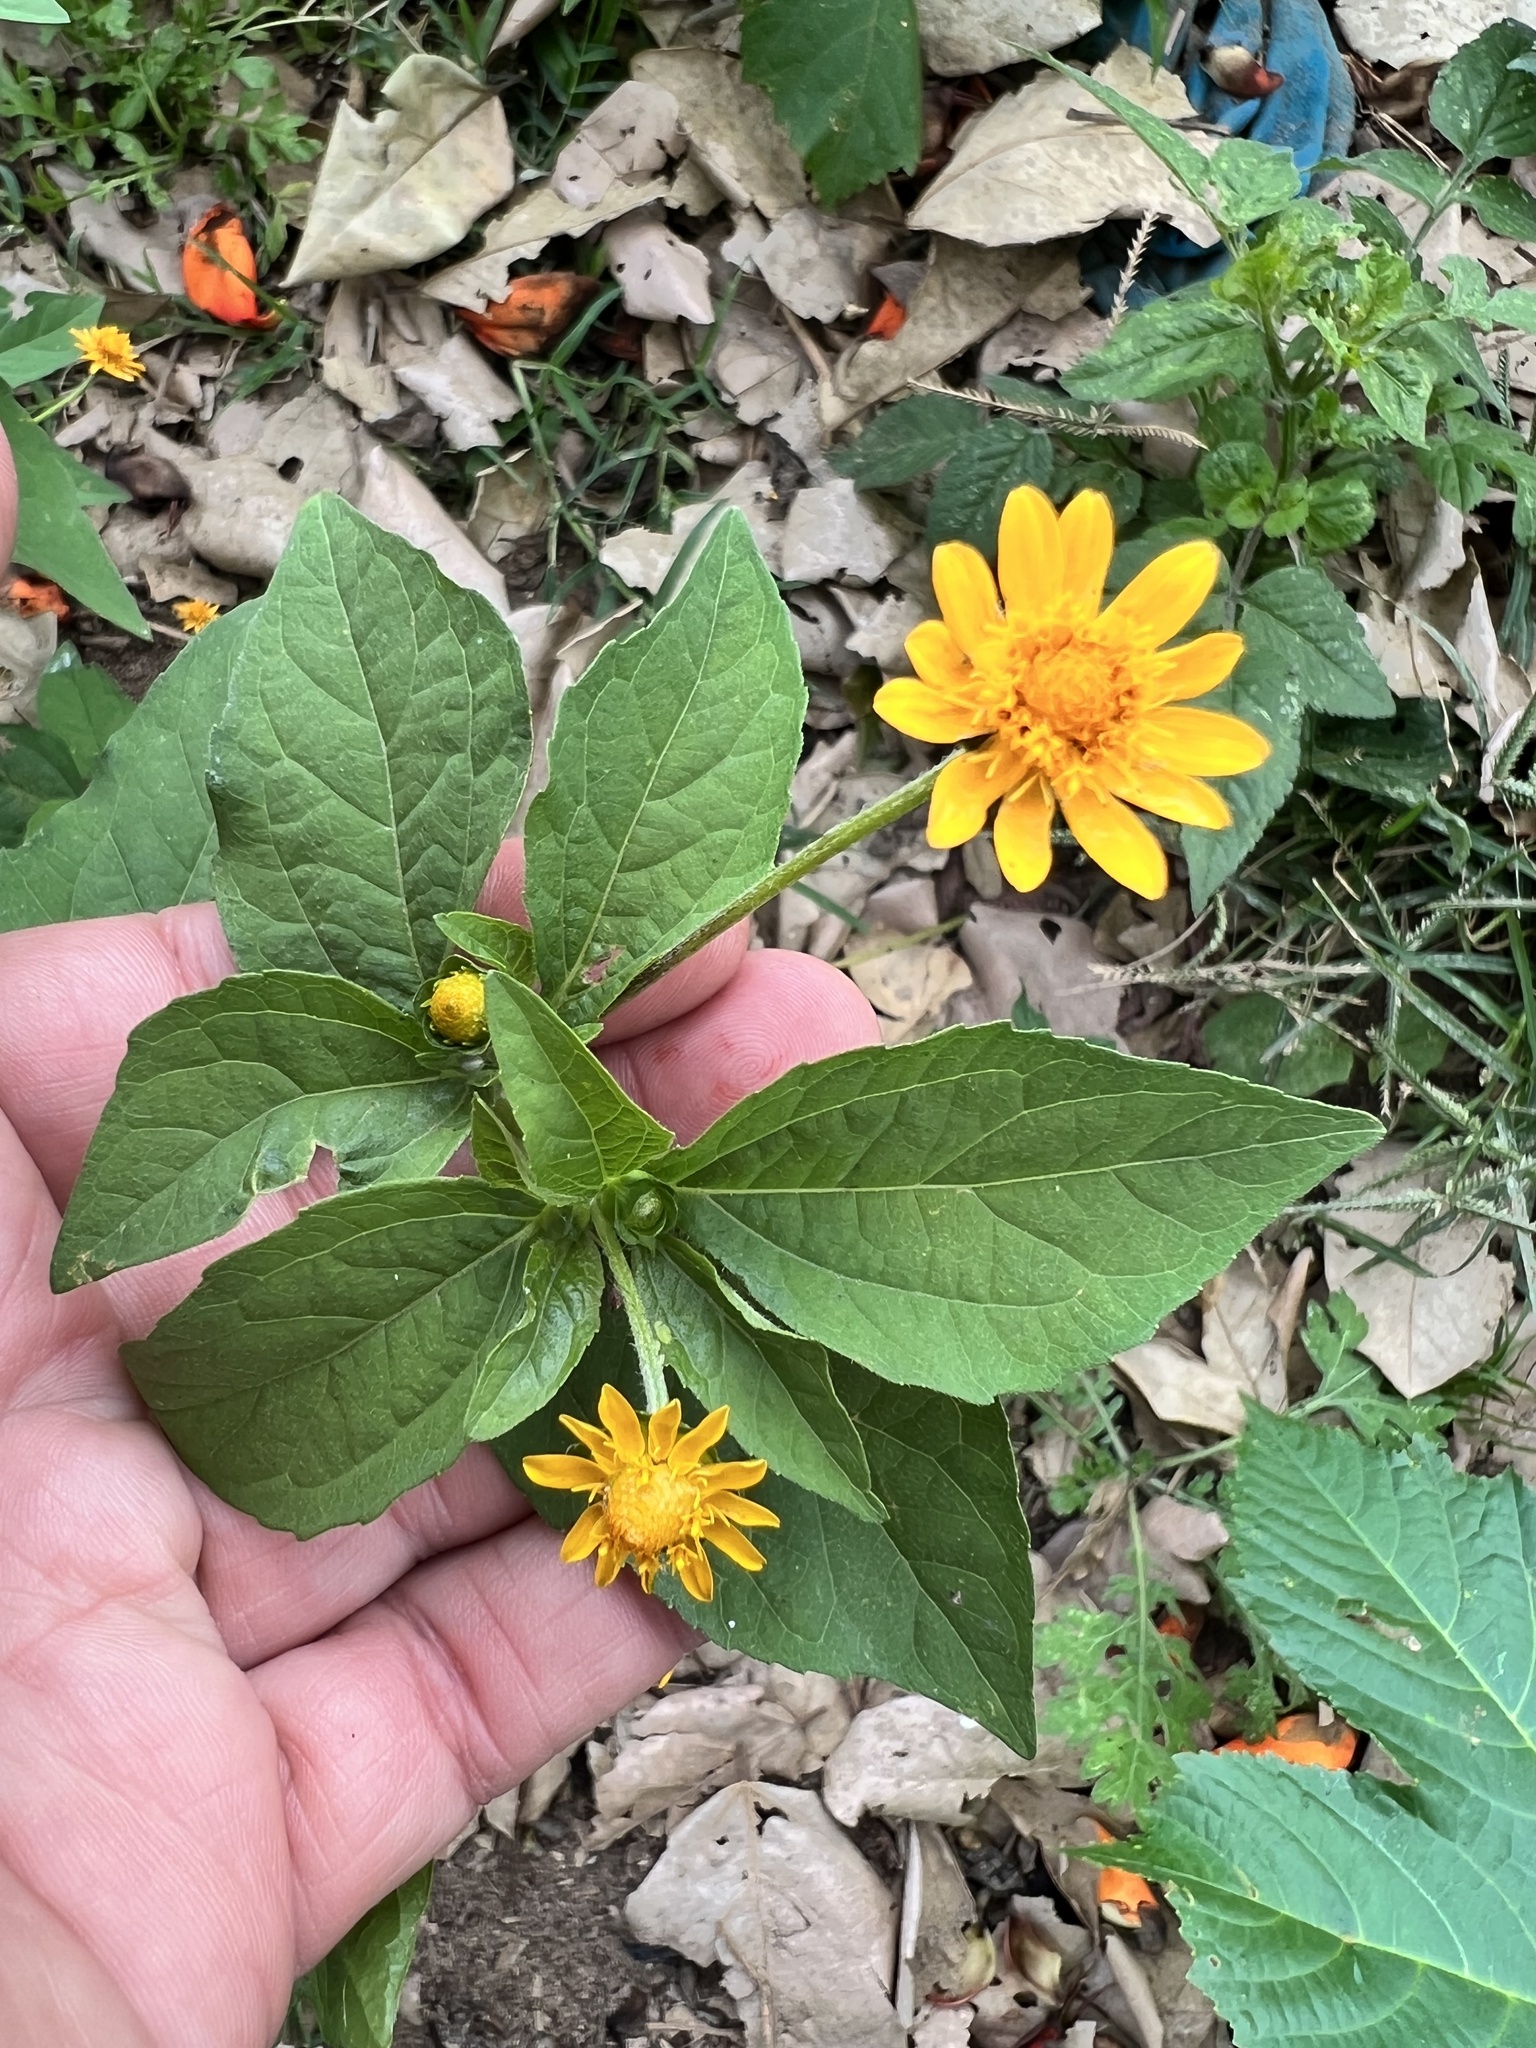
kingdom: Plantae
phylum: Tracheophyta
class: Magnoliopsida
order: Asterales
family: Asteraceae
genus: Melampodium
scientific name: Melampodium divaricatum
